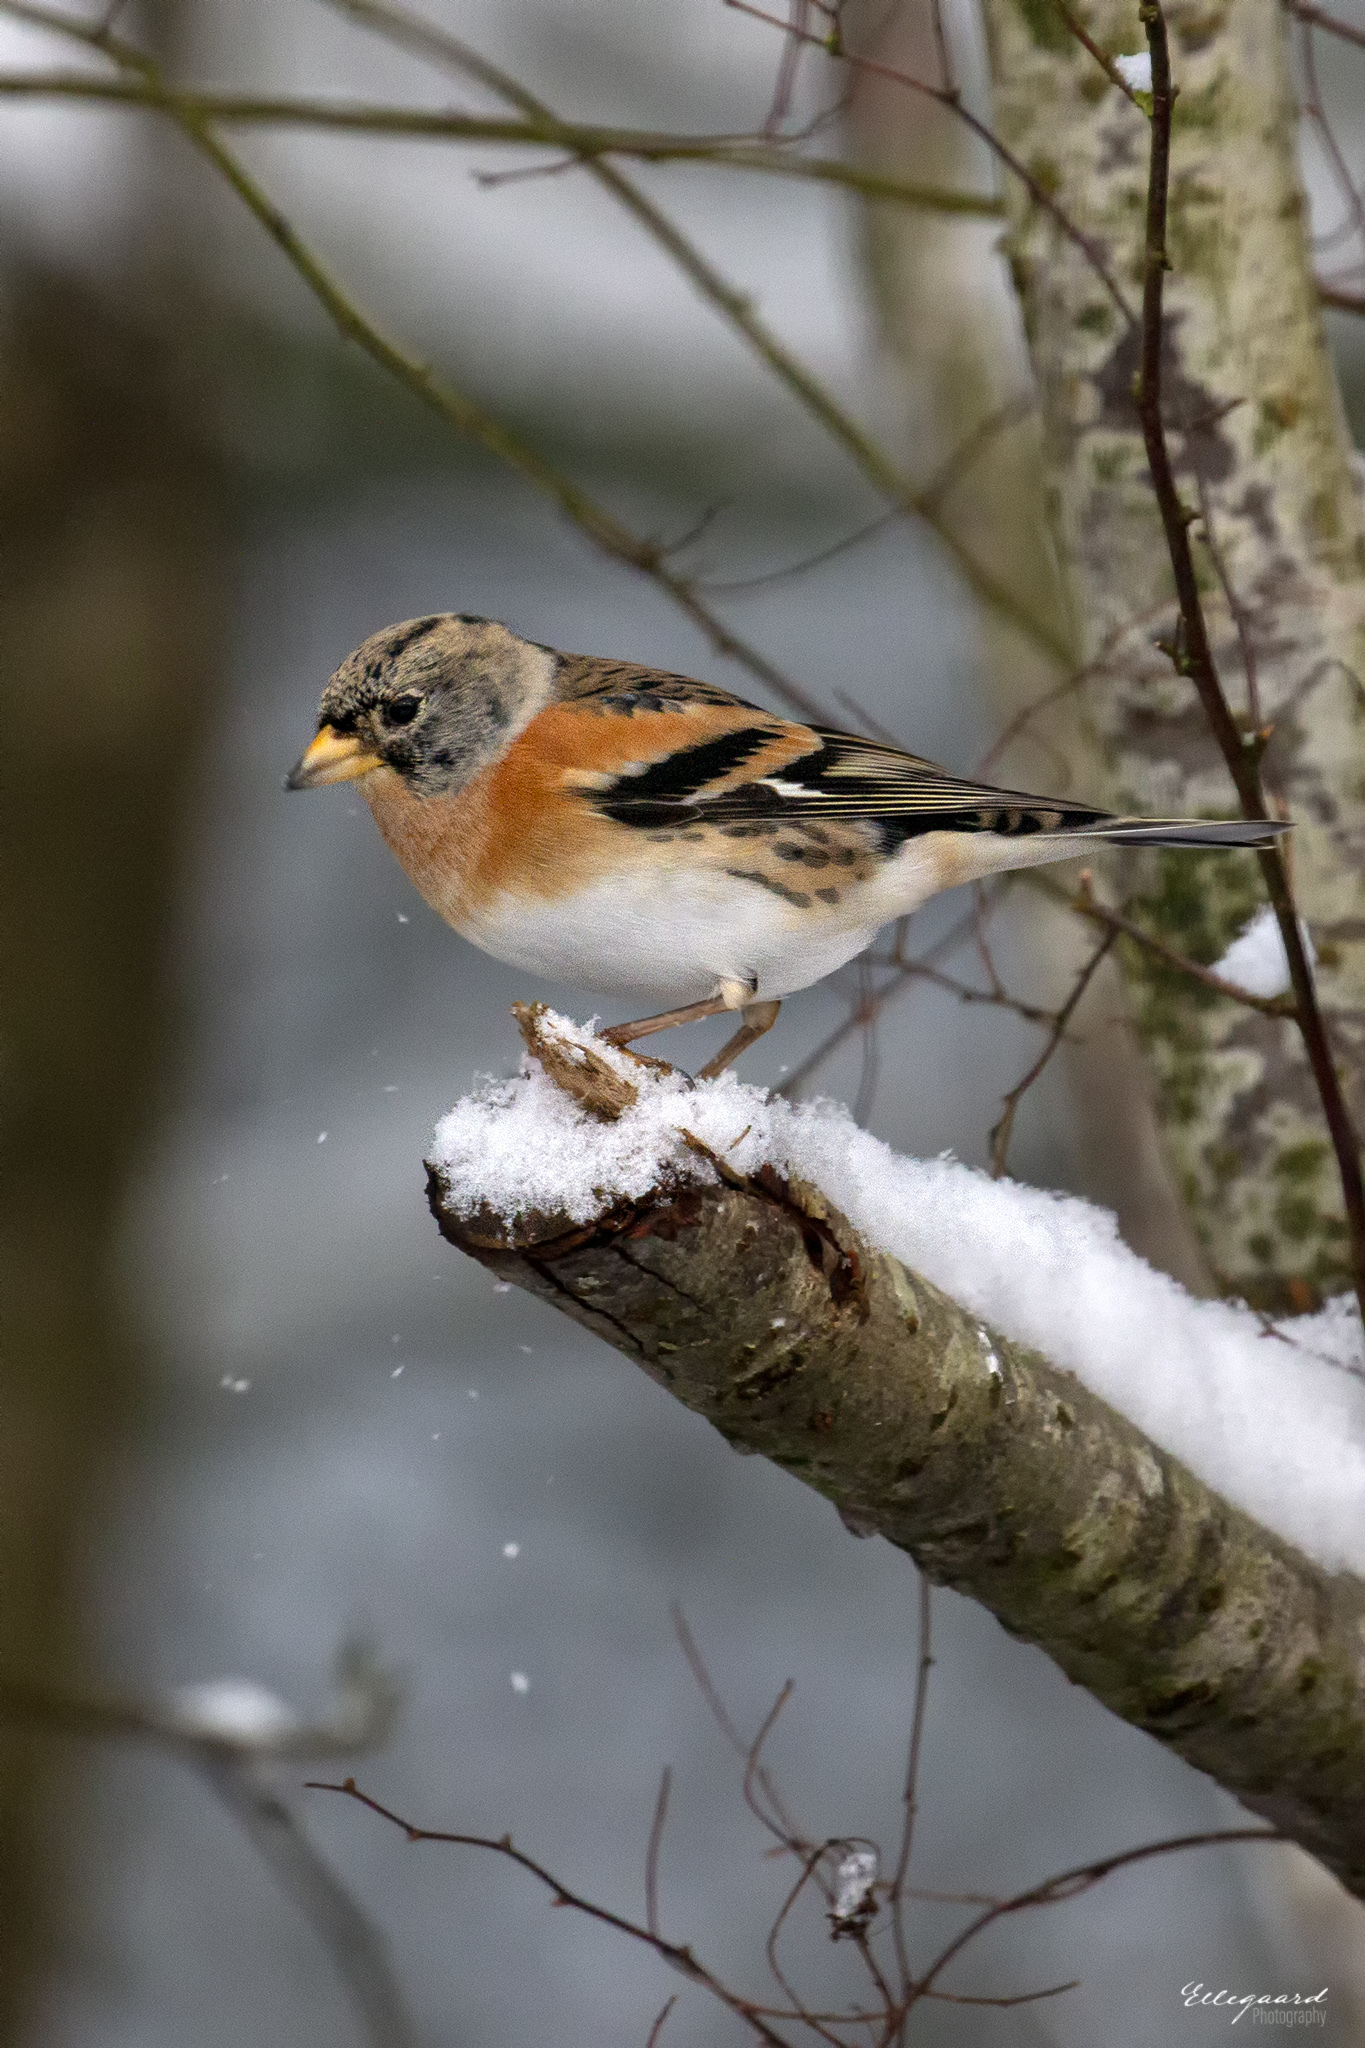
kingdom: Animalia
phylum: Chordata
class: Aves
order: Passeriformes
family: Fringillidae
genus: Fringilla
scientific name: Fringilla montifringilla
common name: Brambling
